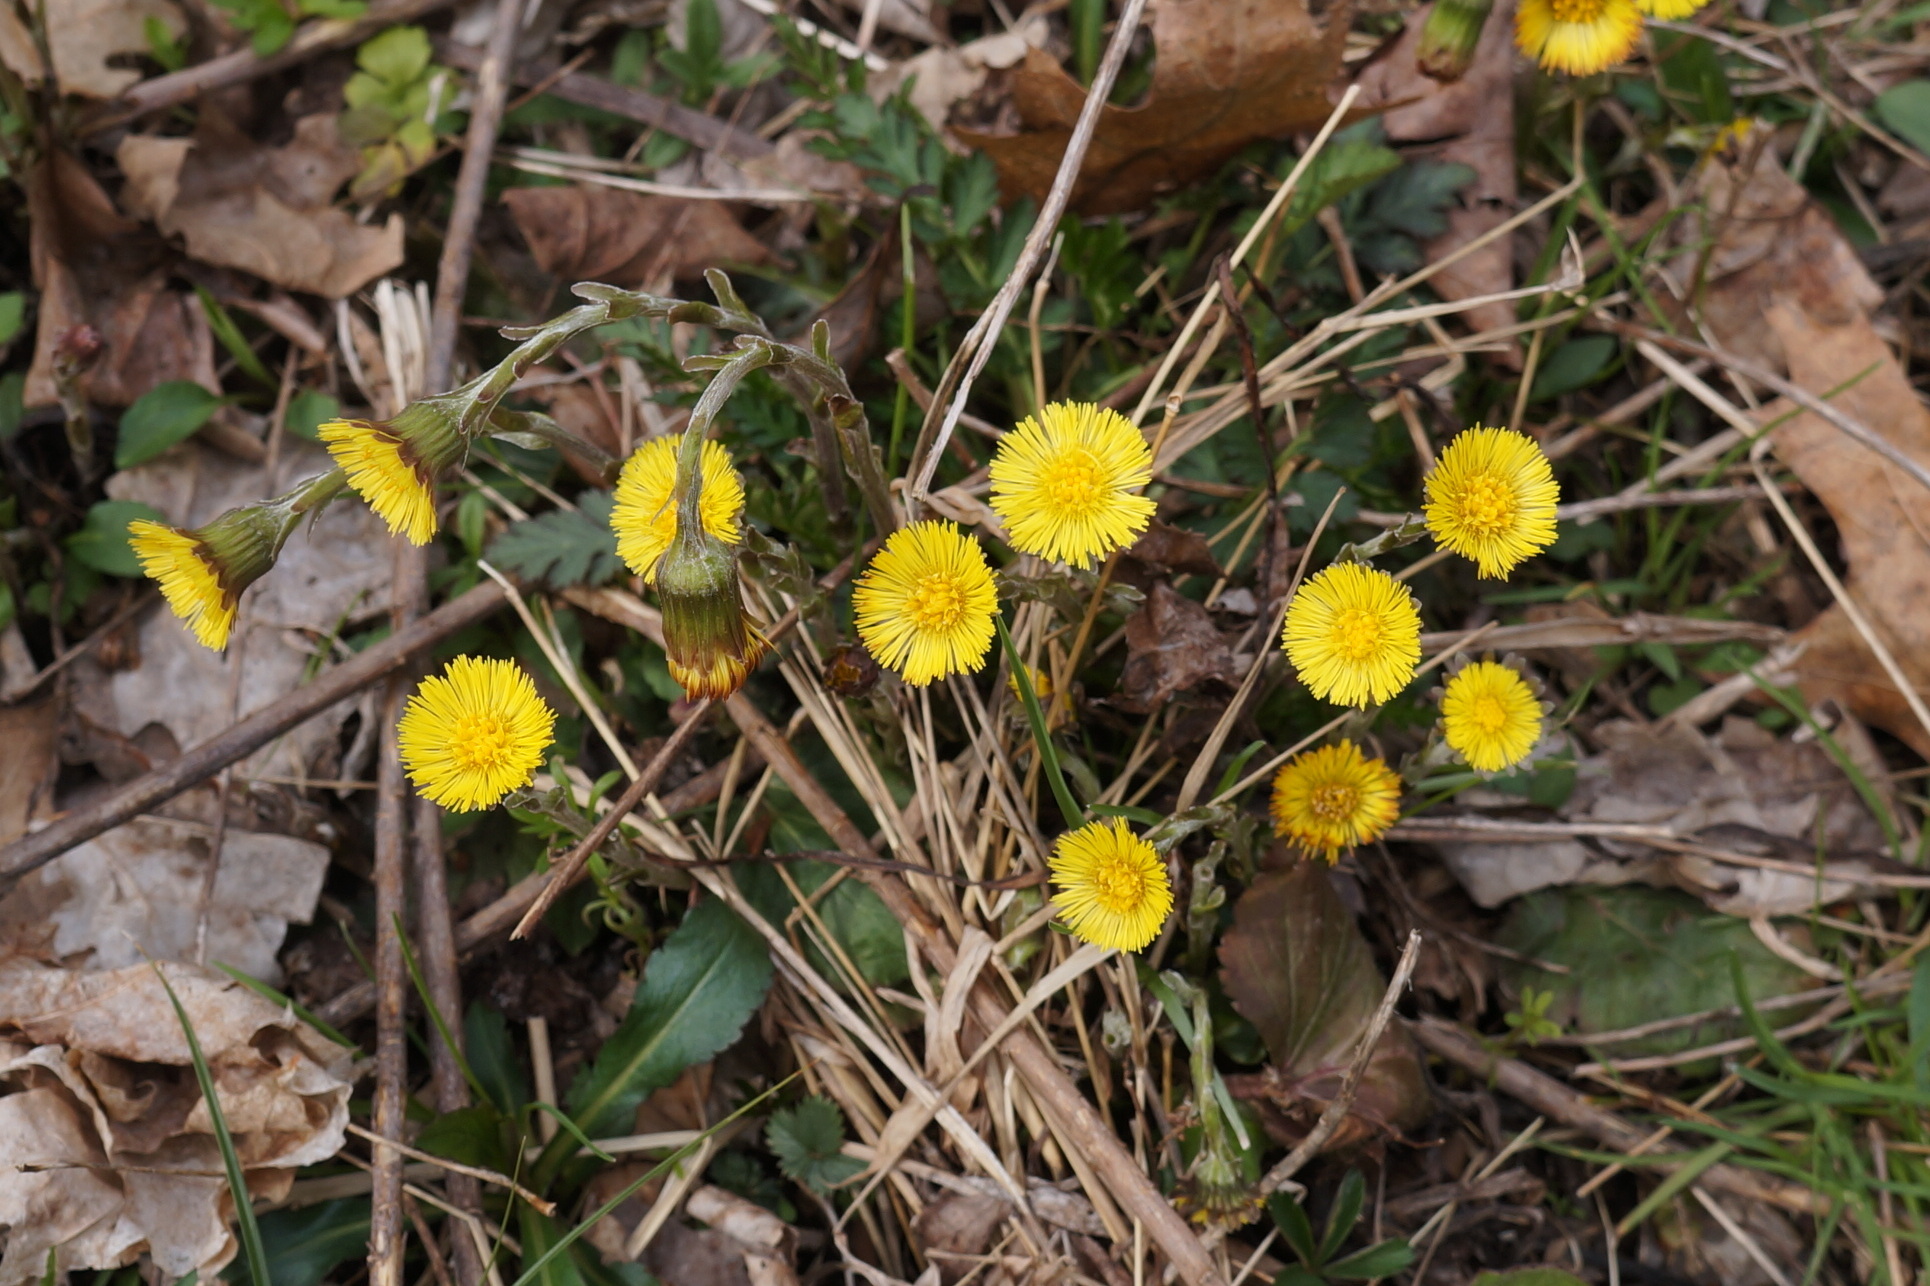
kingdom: Plantae
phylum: Tracheophyta
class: Magnoliopsida
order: Asterales
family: Asteraceae
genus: Tussilago
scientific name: Tussilago farfara
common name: Coltsfoot
